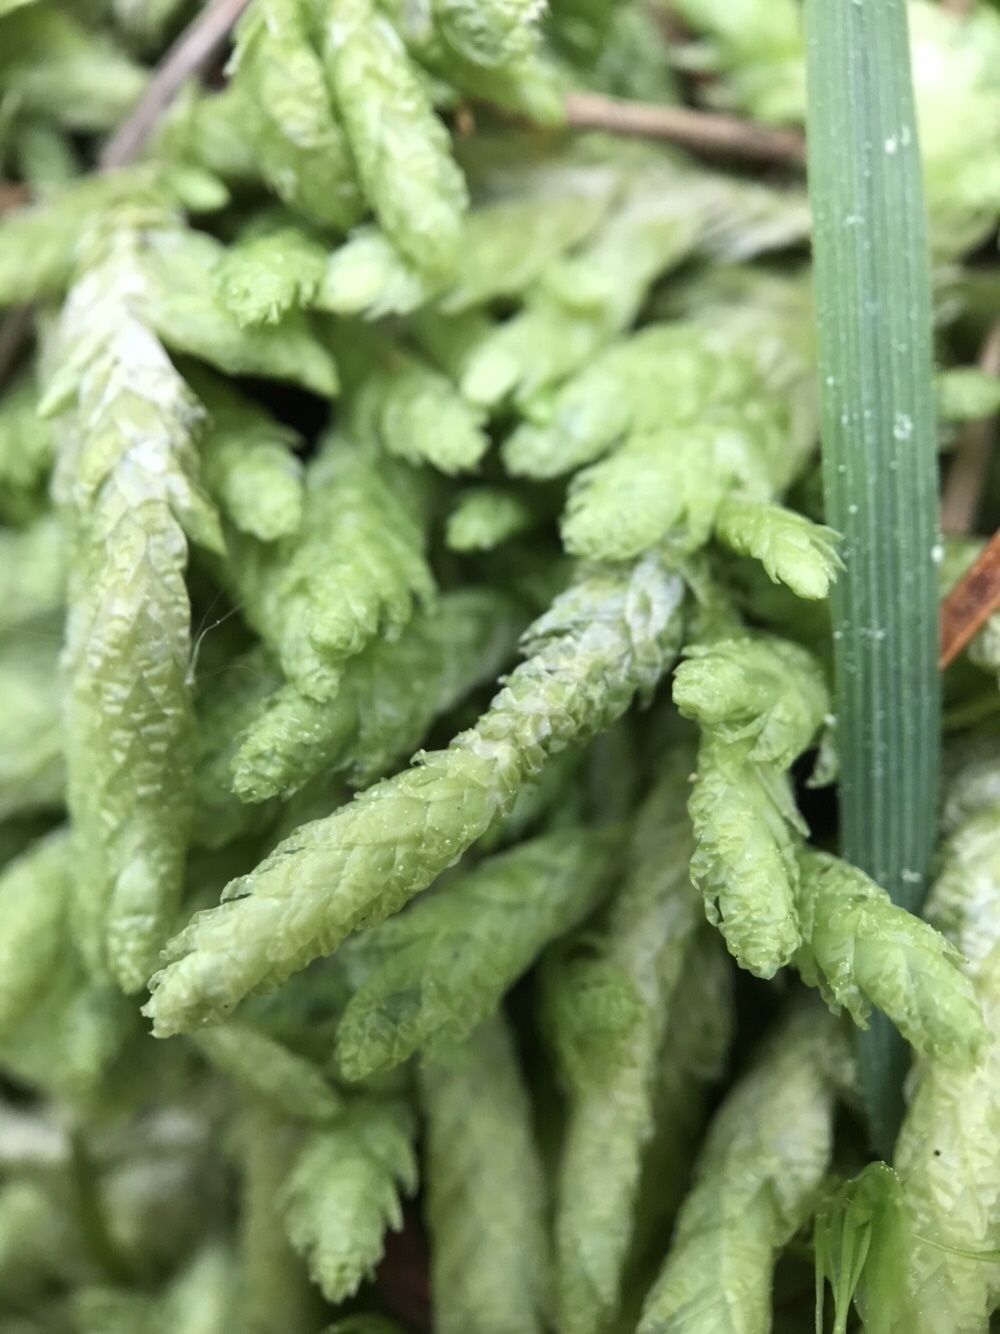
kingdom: Plantae
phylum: Bryophyta
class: Bryopsida
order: Hypnales
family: Plagiotheciaceae
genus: Plagiothecium
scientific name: Plagiothecium undulatum
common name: Waved silk-moss
